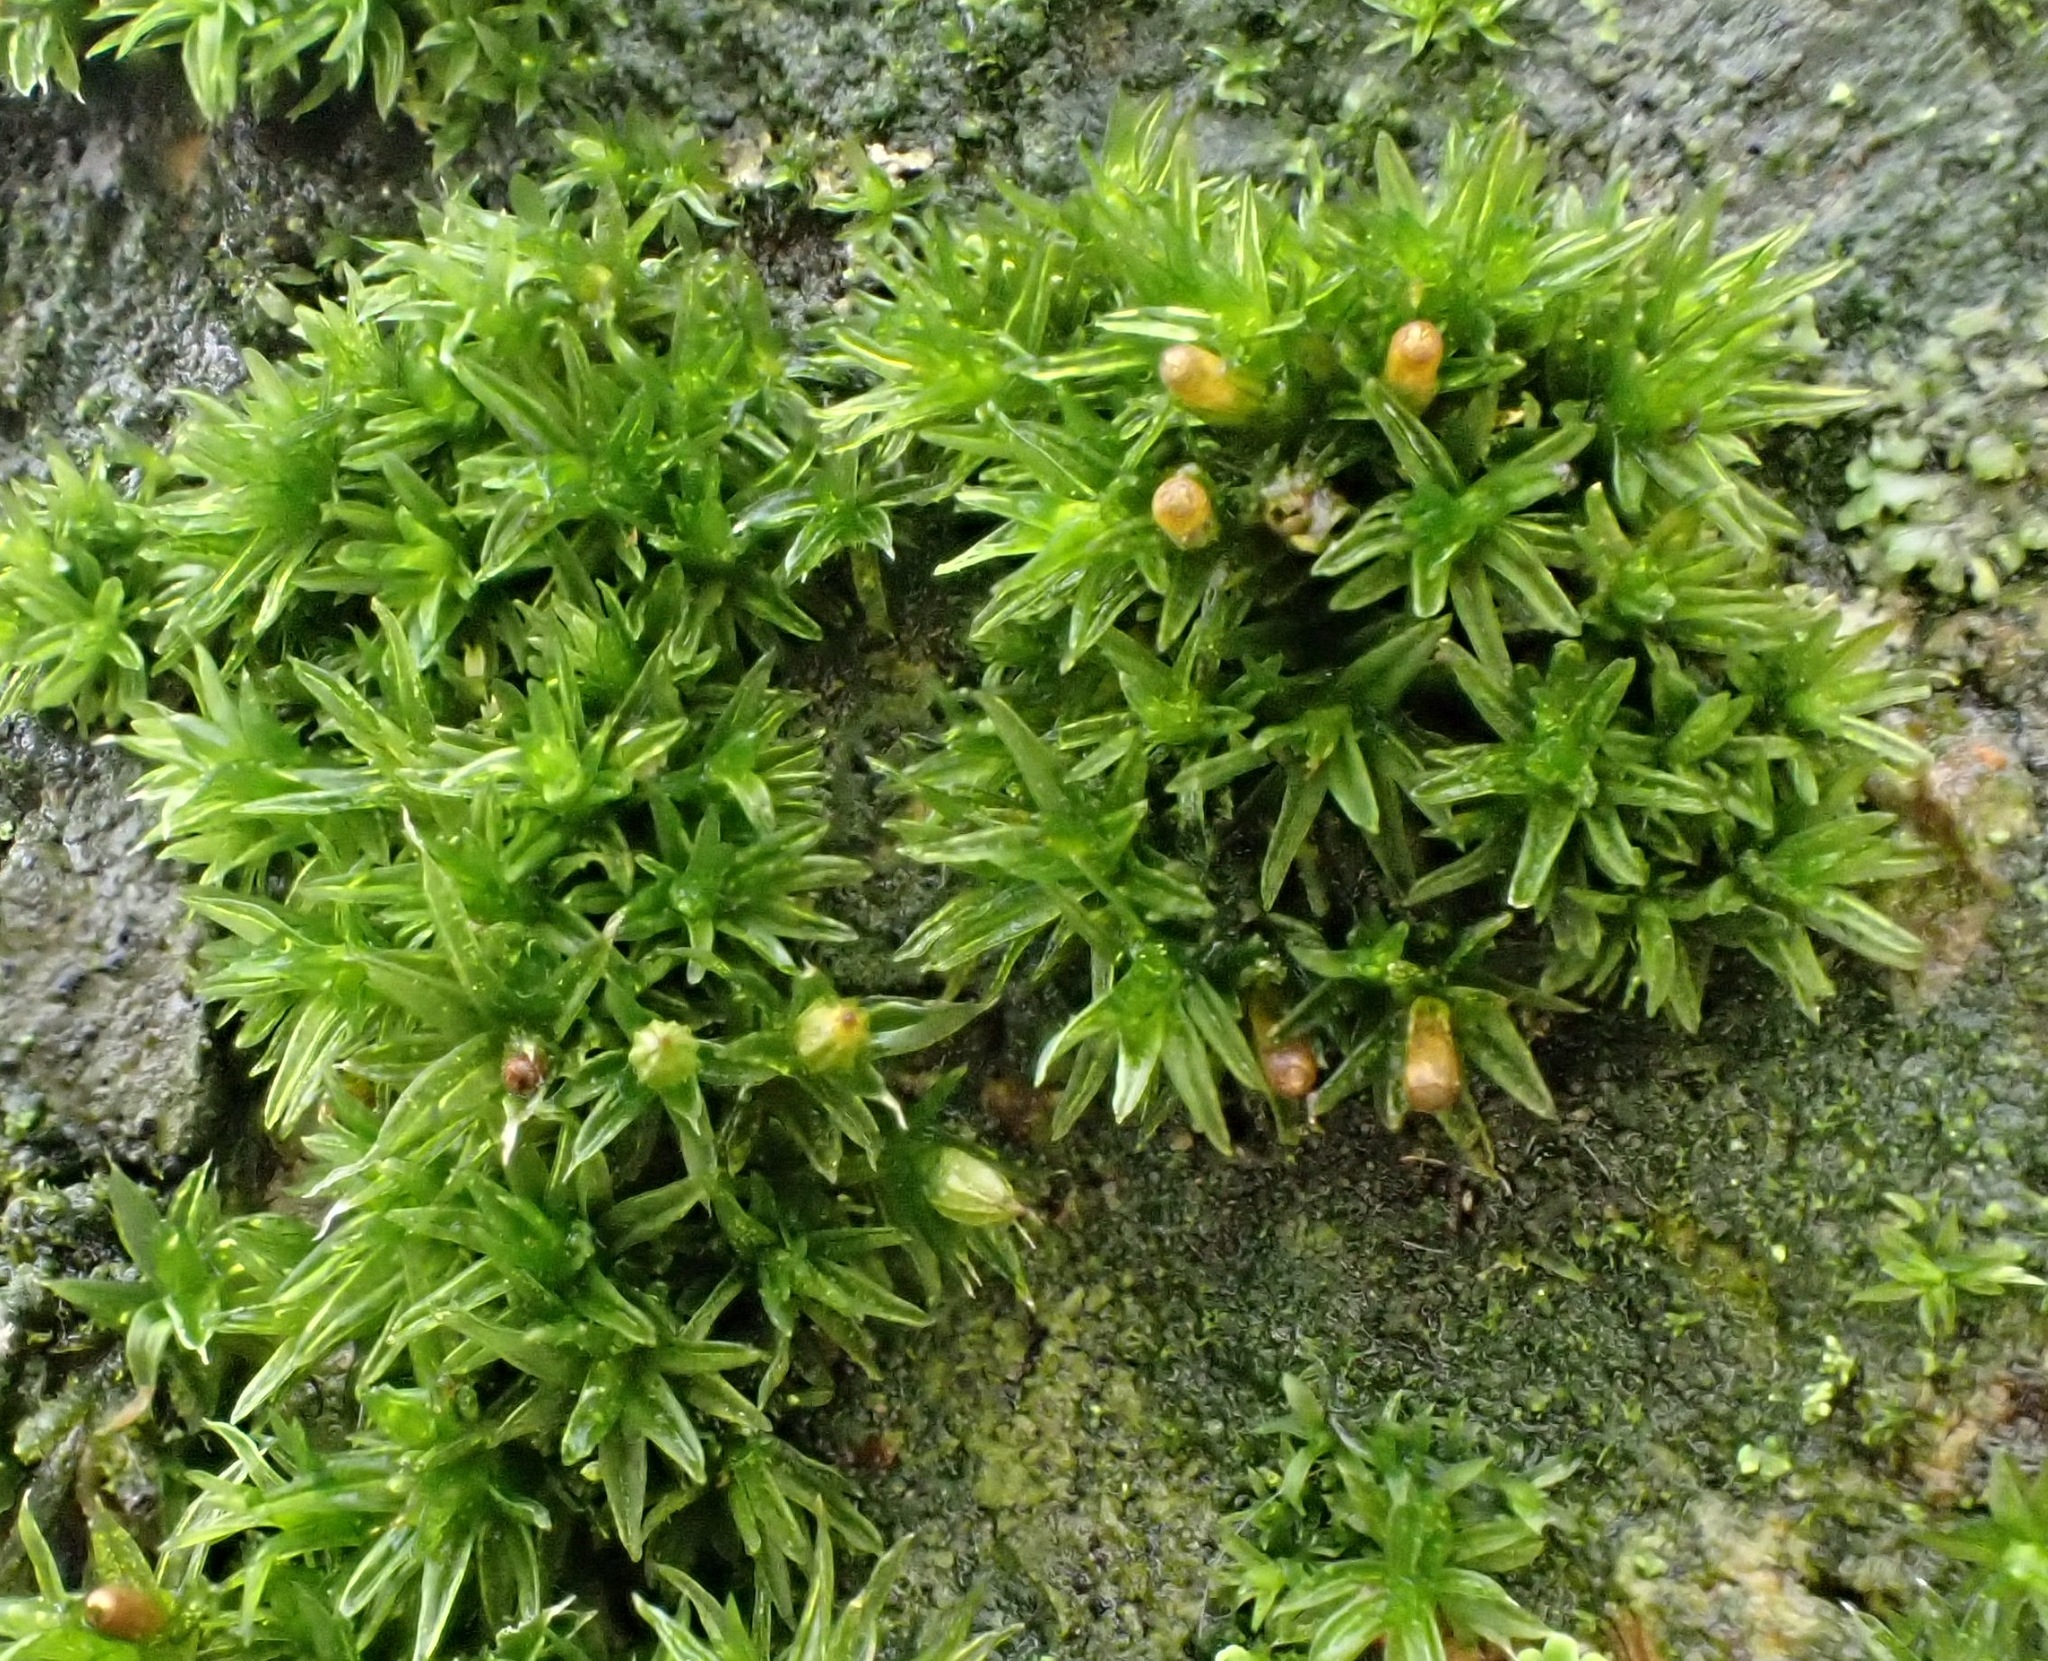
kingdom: Plantae
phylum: Bryophyta
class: Bryopsida
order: Orthotrichales
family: Orthotrichaceae
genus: Orthotrichum
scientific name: Orthotrichum diaphanum
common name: White-tipped bristle-moss
